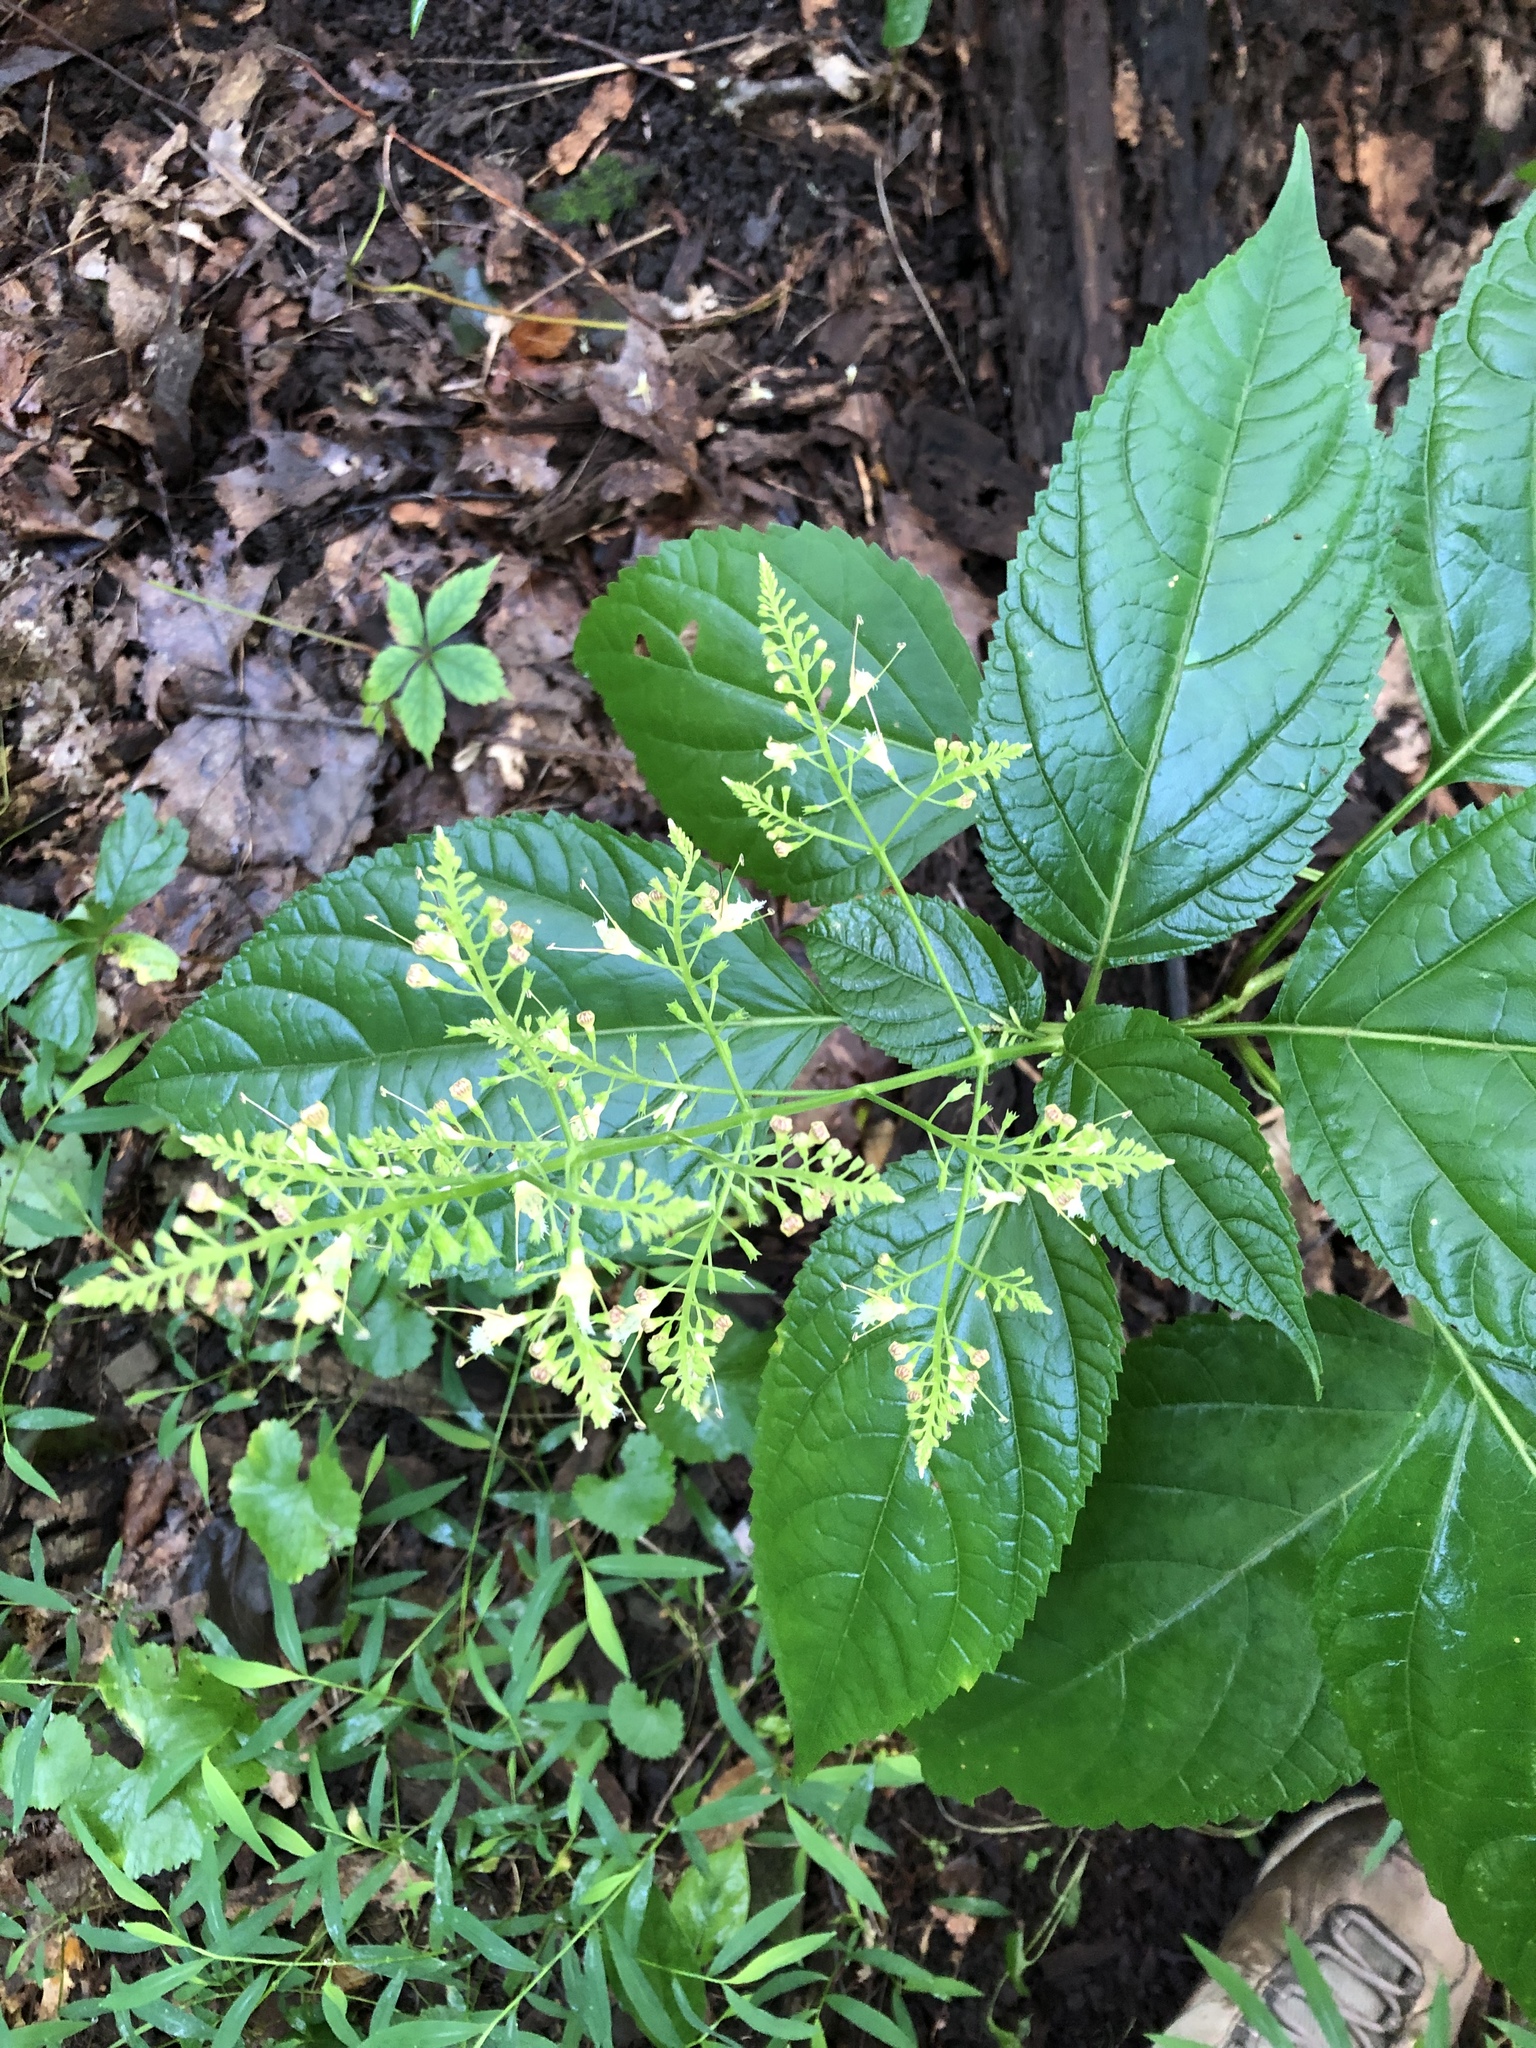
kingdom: Plantae
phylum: Tracheophyta
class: Magnoliopsida
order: Lamiales
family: Lamiaceae
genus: Collinsonia
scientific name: Collinsonia canadensis
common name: Northern horsebalm
